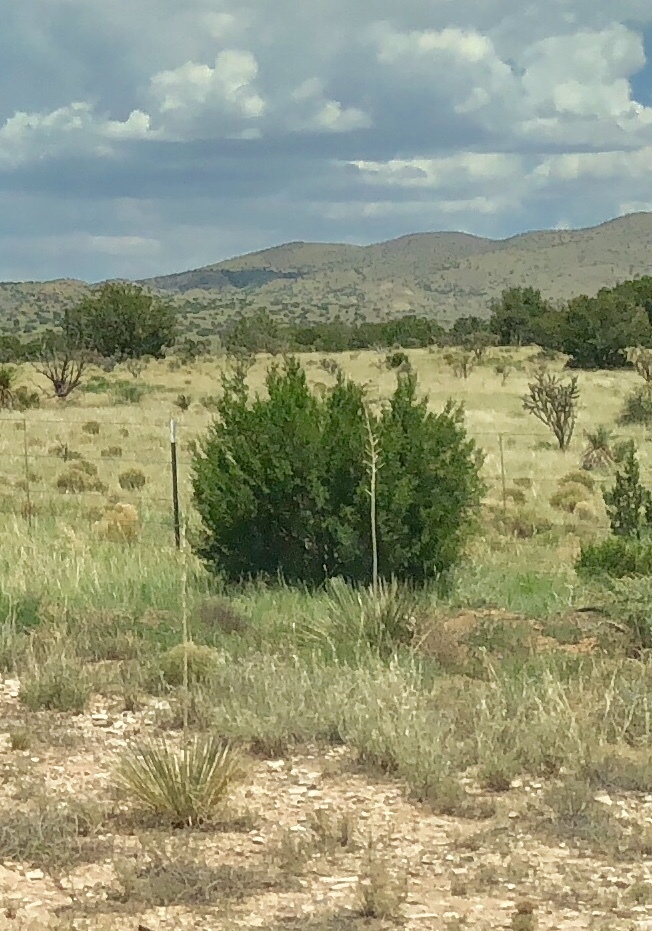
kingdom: Plantae
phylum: Tracheophyta
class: Pinopsida
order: Pinales
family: Cupressaceae
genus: Juniperus
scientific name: Juniperus monosperma
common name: One-seed juniper
